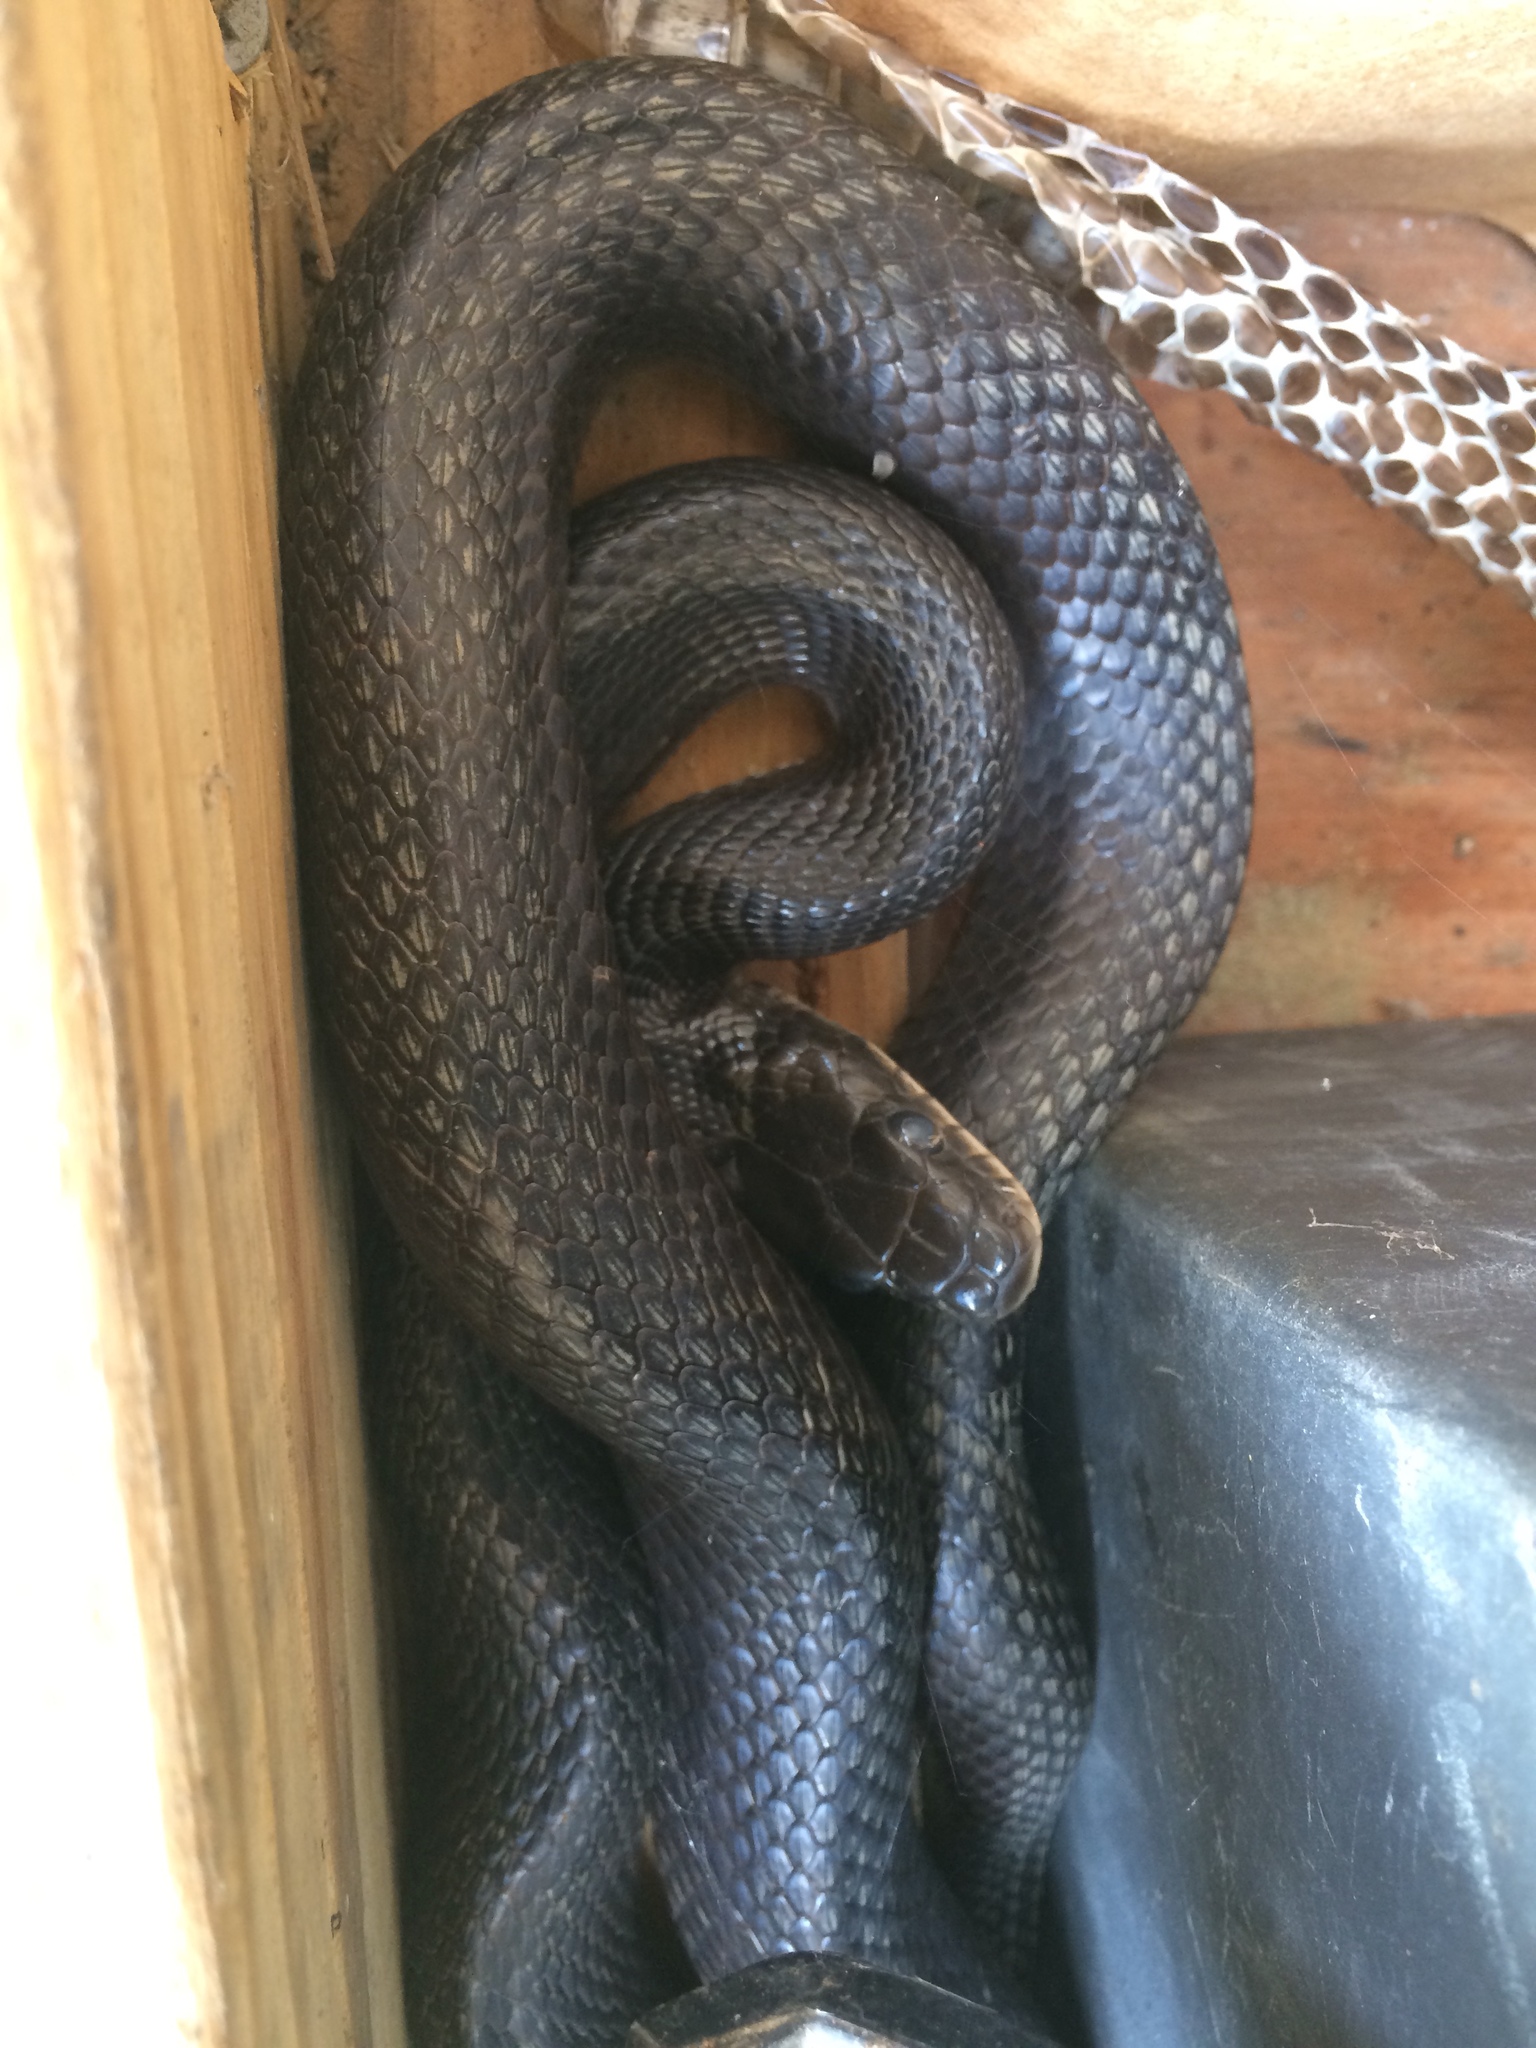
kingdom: Animalia
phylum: Chordata
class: Squamata
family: Colubridae
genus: Pantherophis
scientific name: Pantherophis alleghaniensis
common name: Eastern rat snake
